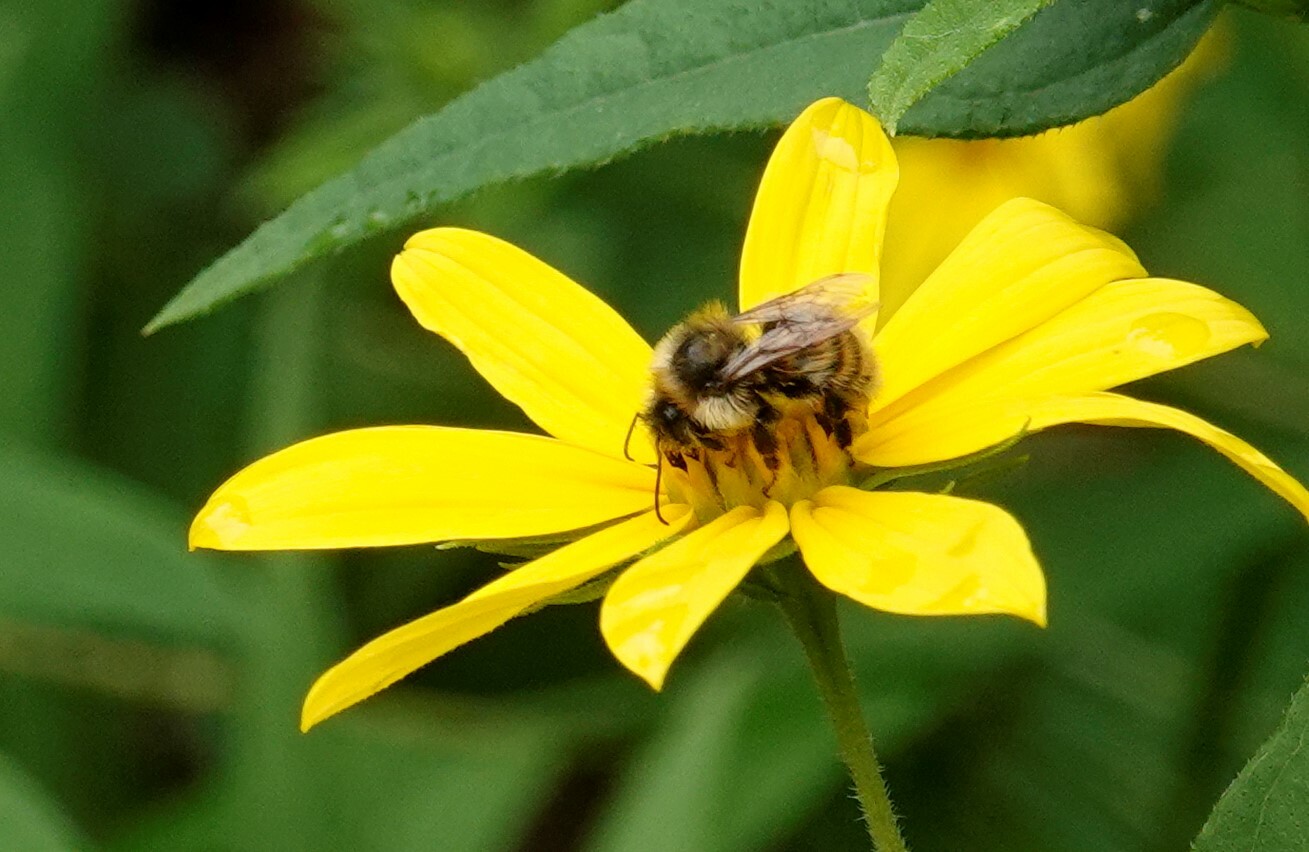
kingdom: Animalia
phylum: Arthropoda
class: Insecta
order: Hymenoptera
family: Apidae
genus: Bombus
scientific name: Bombus rufocinctus
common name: Red-belted bumble bee
